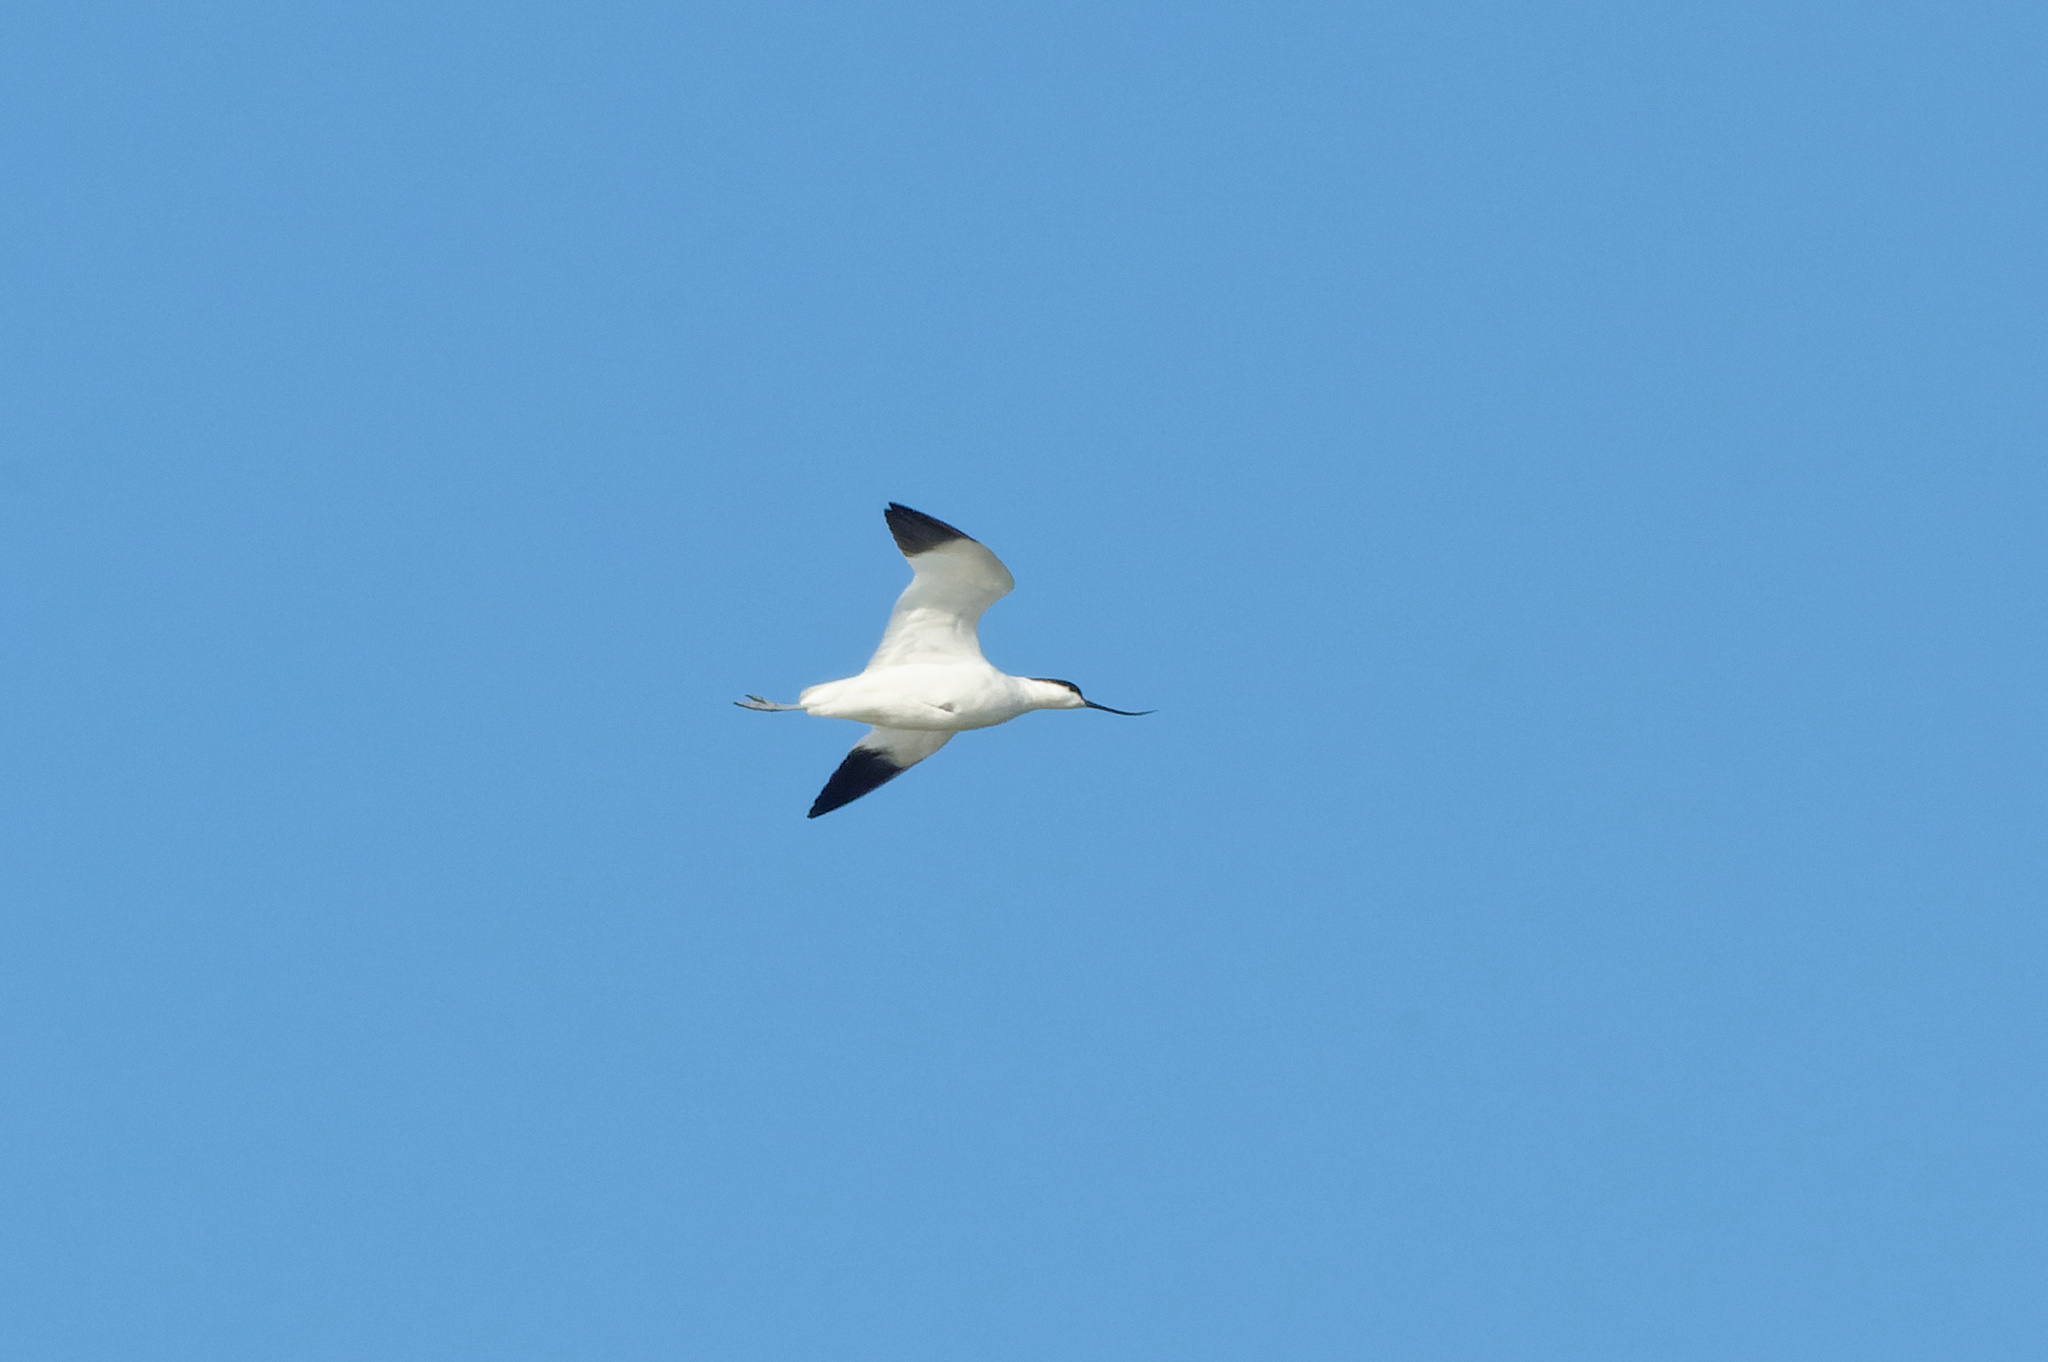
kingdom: Animalia
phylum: Chordata
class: Aves
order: Charadriiformes
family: Recurvirostridae
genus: Recurvirostra
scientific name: Recurvirostra avosetta
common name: Pied avocet
